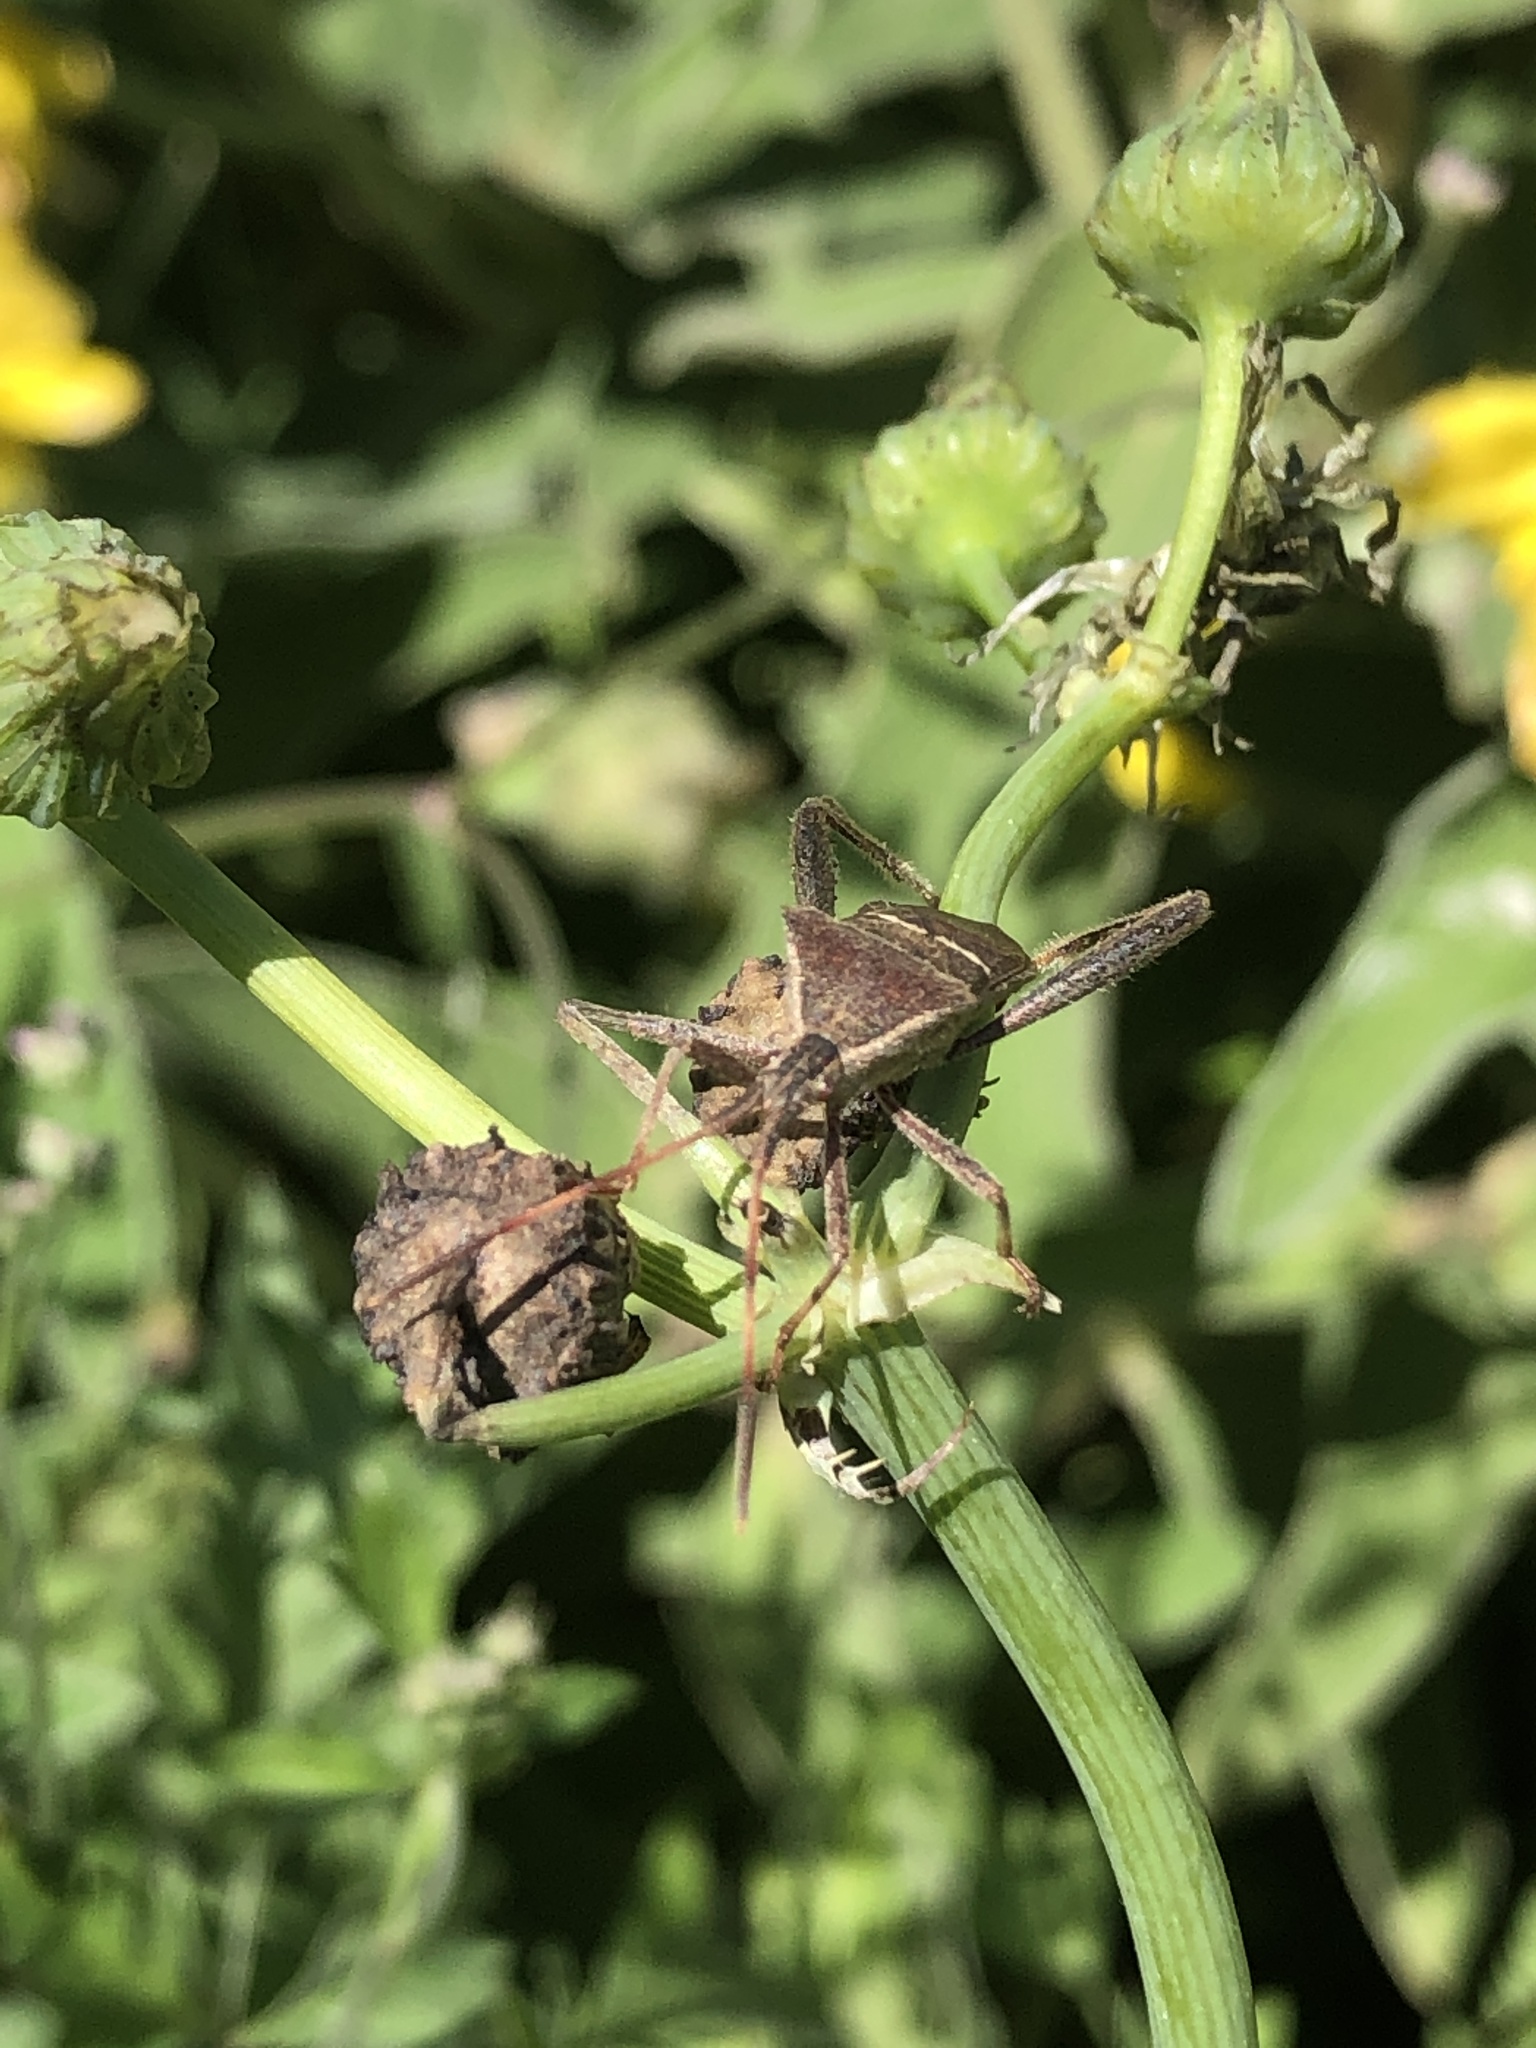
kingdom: Animalia
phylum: Arthropoda
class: Insecta
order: Hemiptera
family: Coreidae
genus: Leptoglossus
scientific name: Leptoglossus phyllopus
